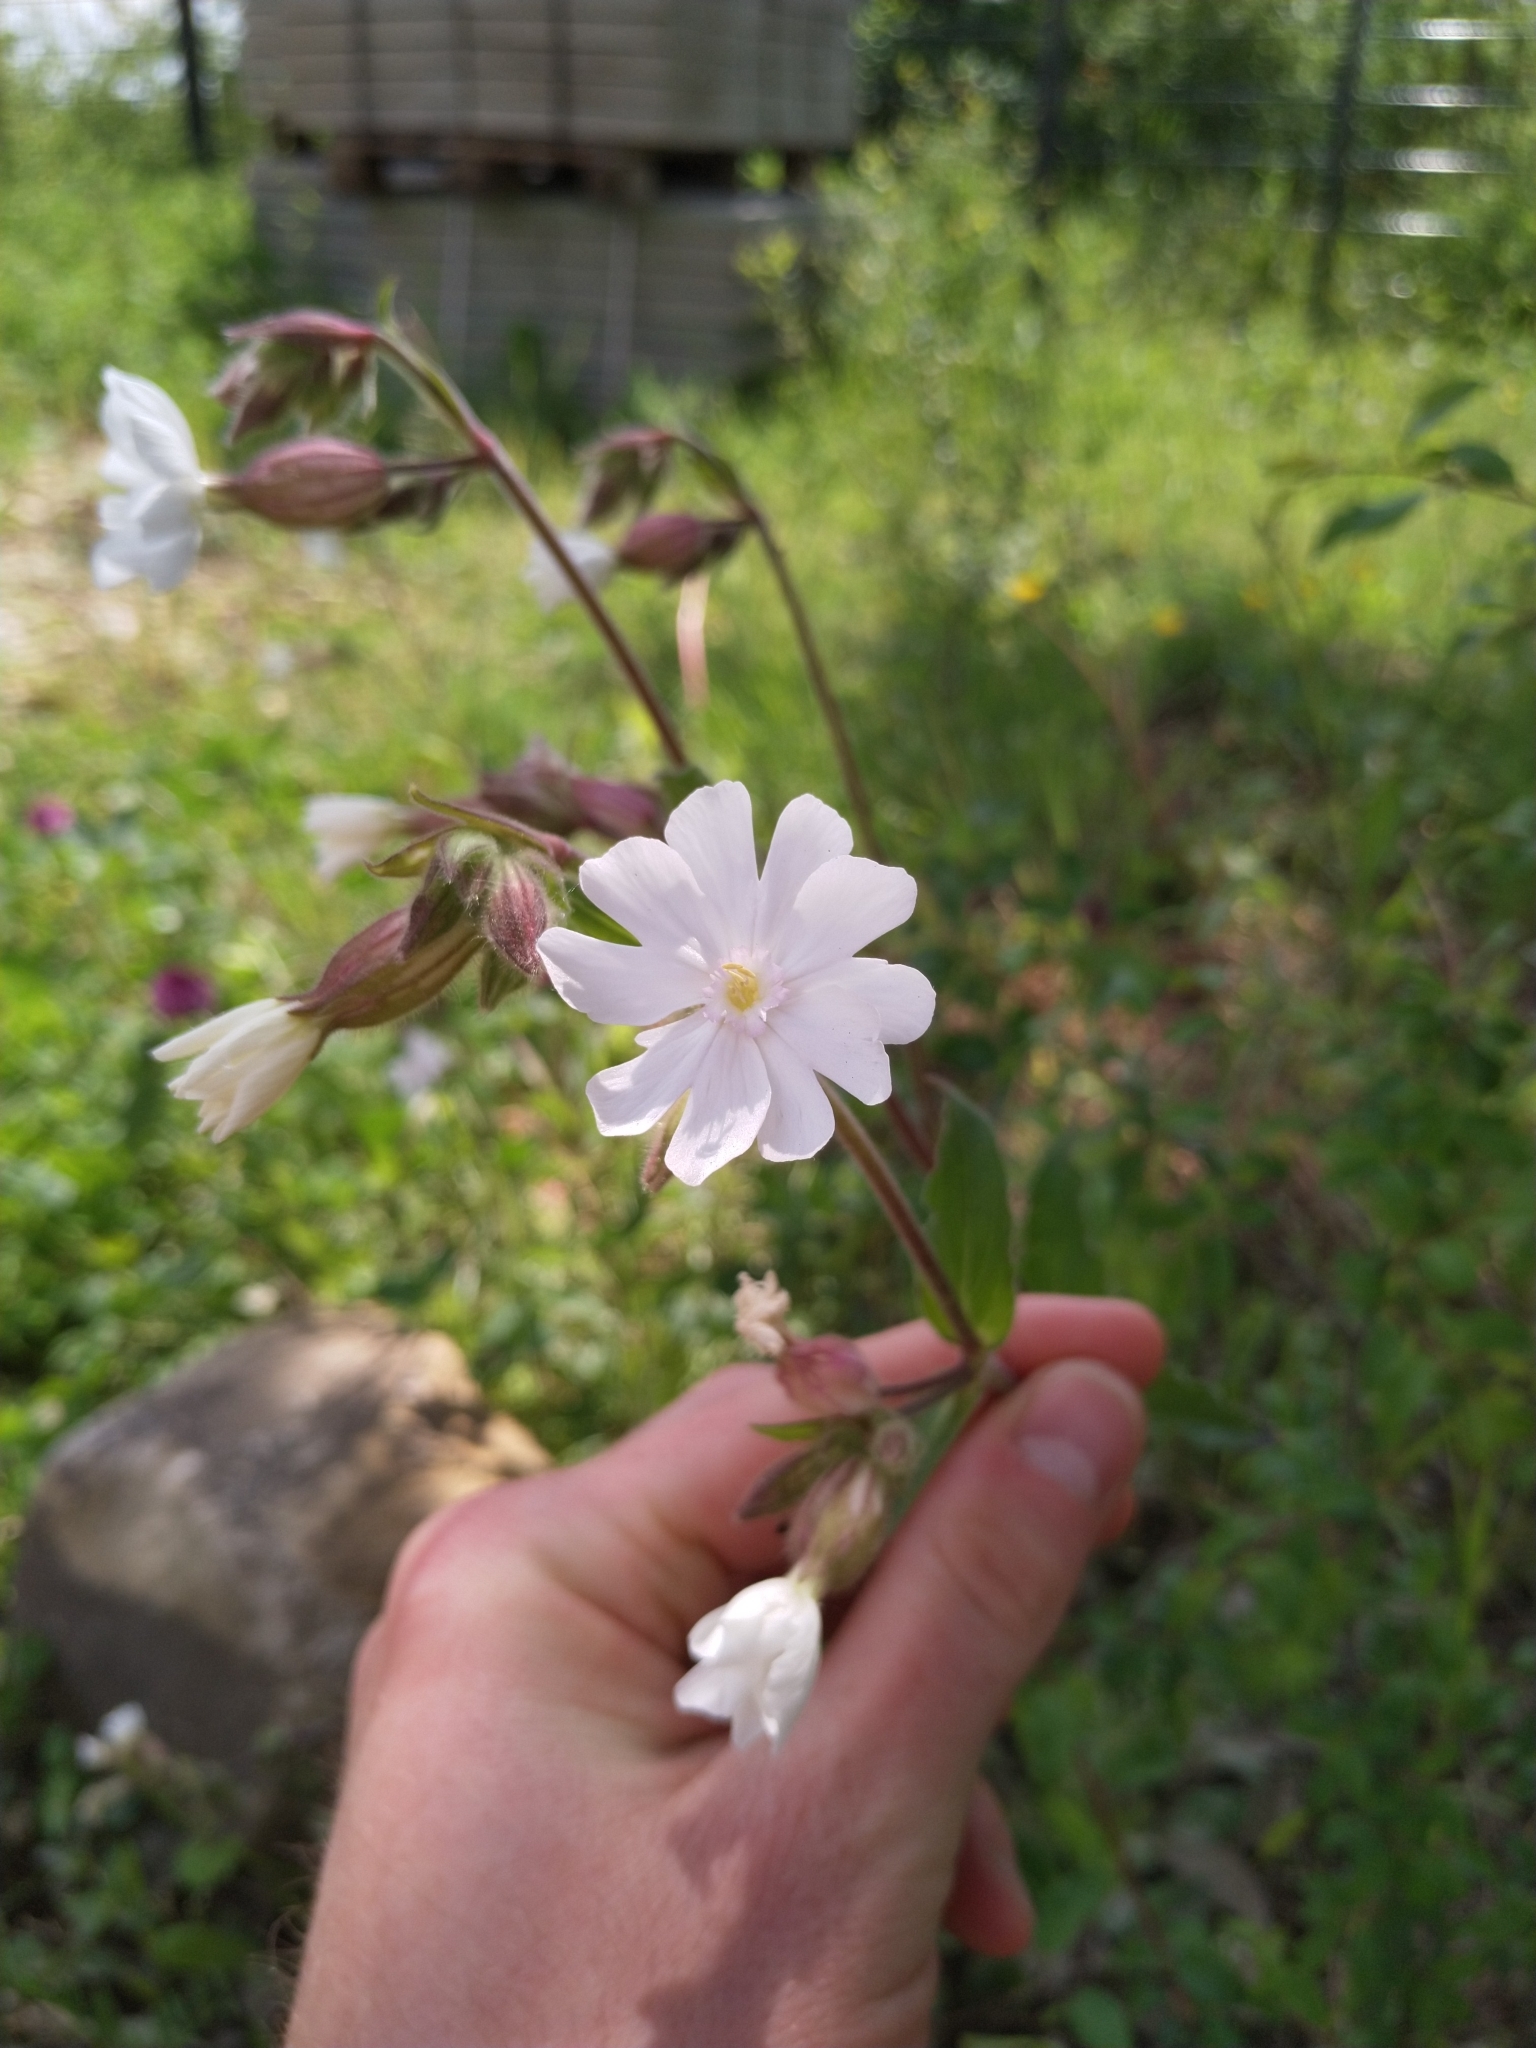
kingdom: Plantae
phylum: Tracheophyta
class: Magnoliopsida
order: Caryophyllales
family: Caryophyllaceae
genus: Silene
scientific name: Silene latifolia
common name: White campion
